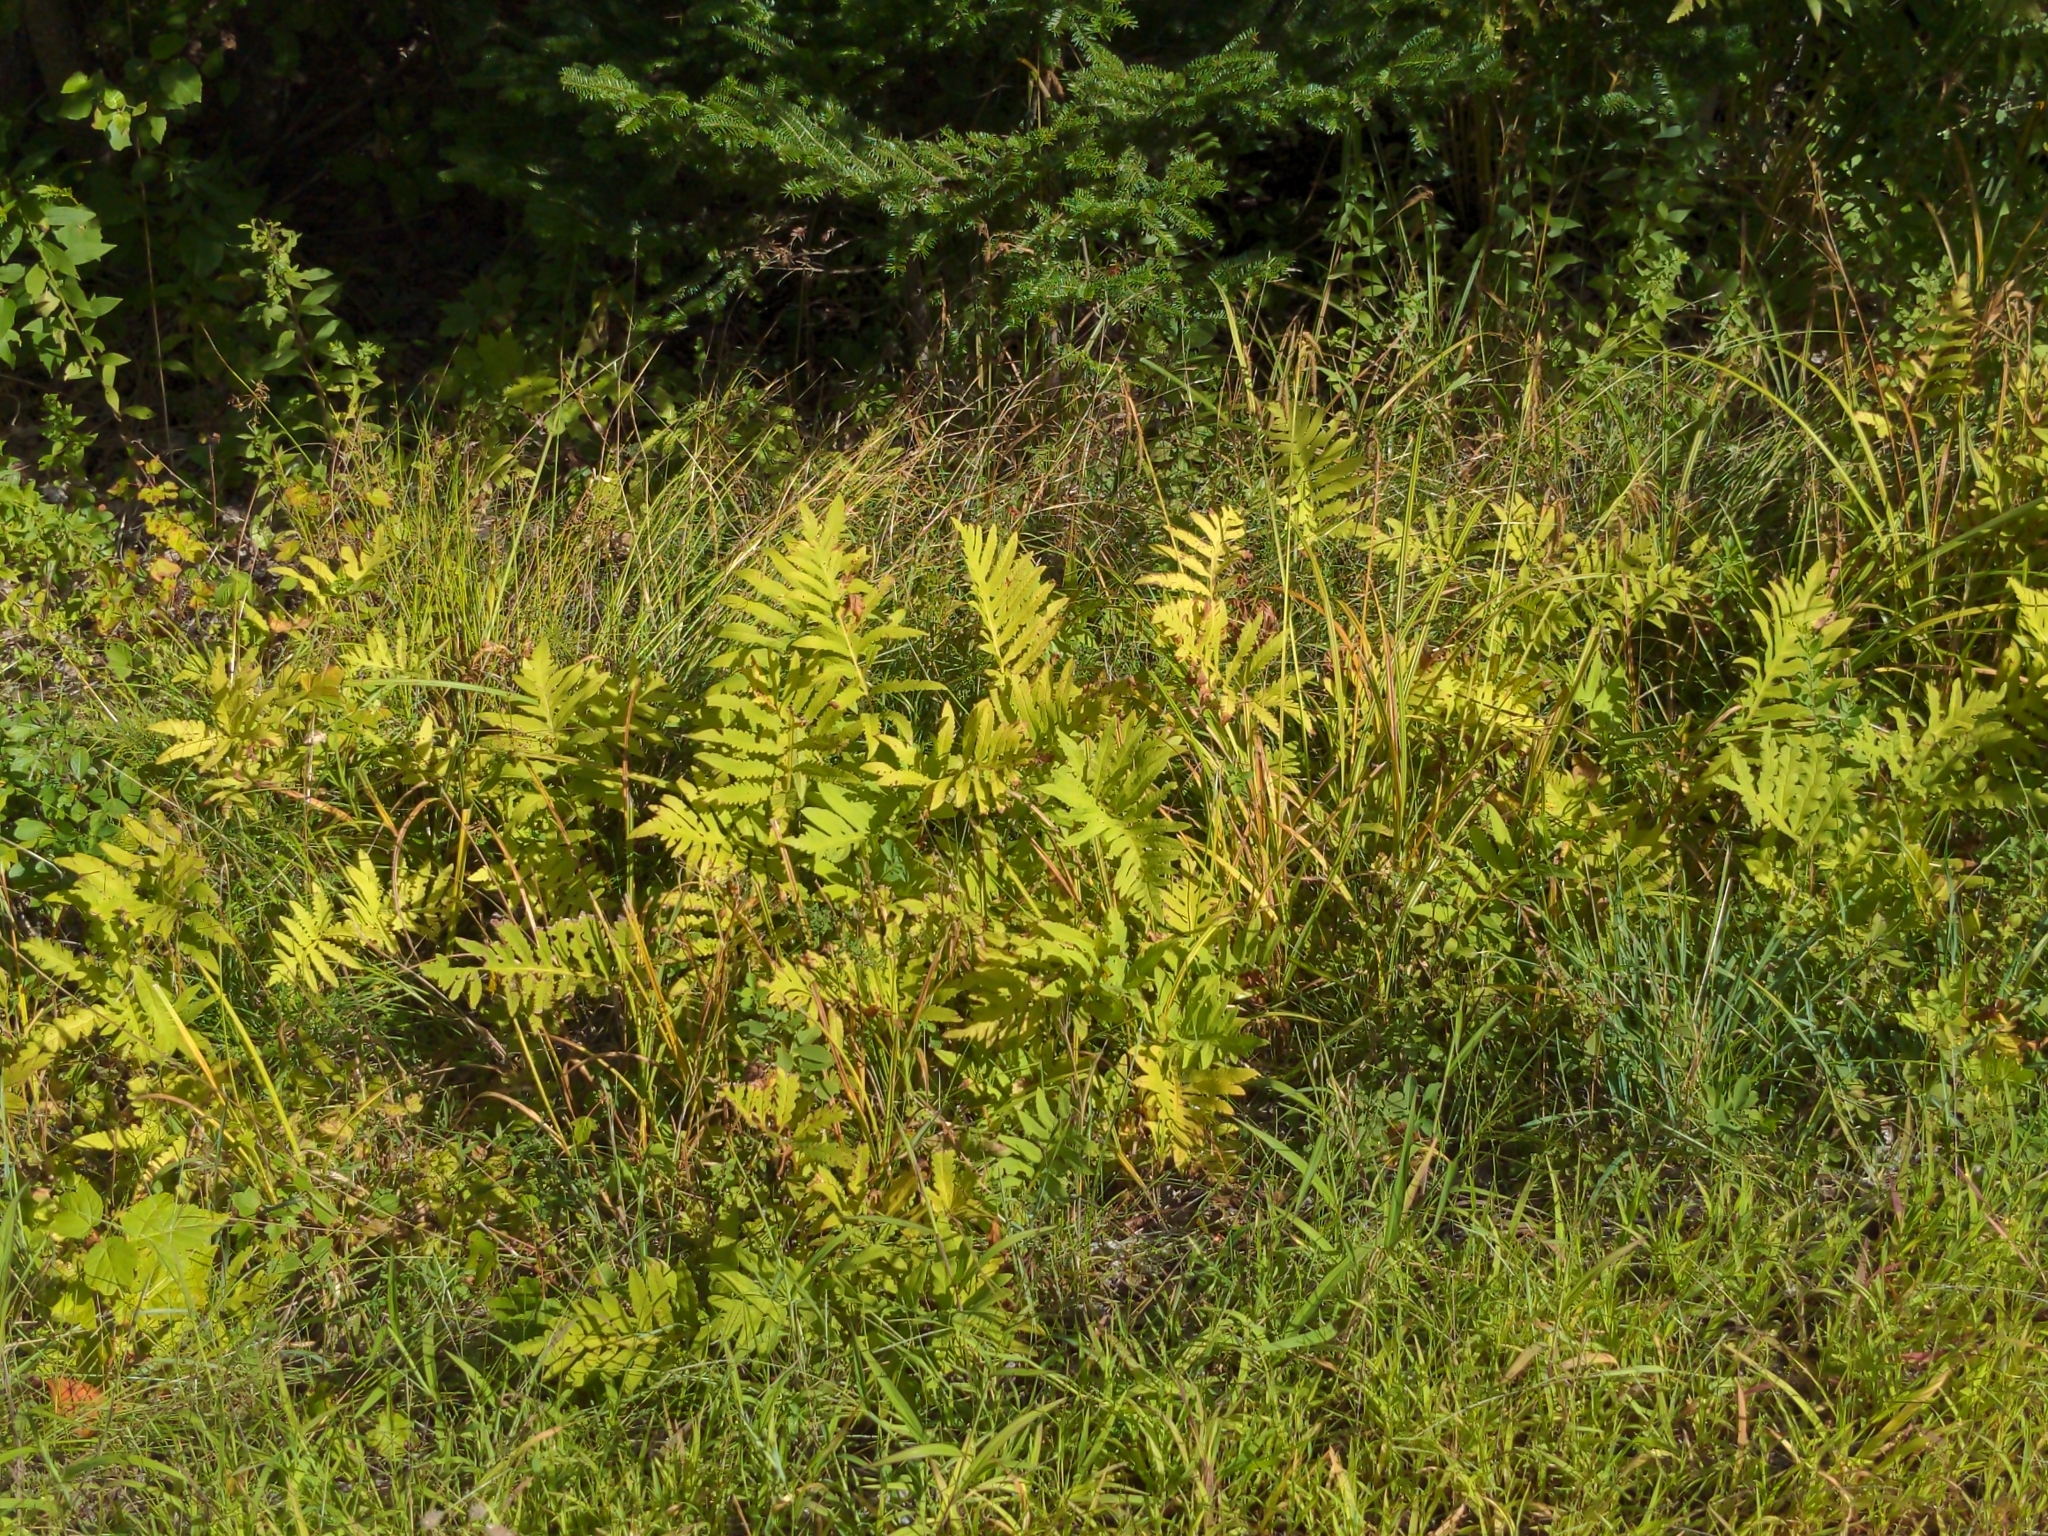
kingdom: Plantae
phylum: Tracheophyta
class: Polypodiopsida
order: Polypodiales
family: Onocleaceae
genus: Onoclea
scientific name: Onoclea sensibilis
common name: Sensitive fern
